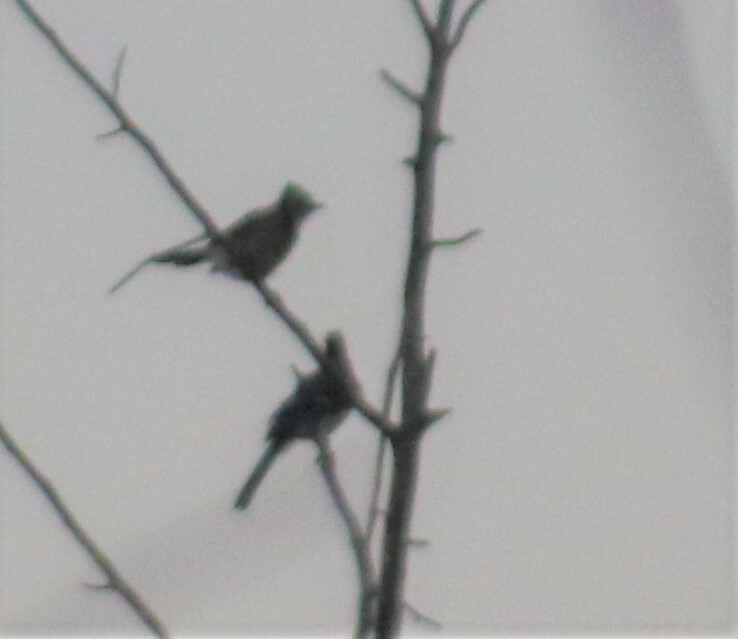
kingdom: Animalia
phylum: Chordata
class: Aves
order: Passeriformes
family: Corvidae
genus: Cyanocitta
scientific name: Cyanocitta cristata
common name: Blue jay
